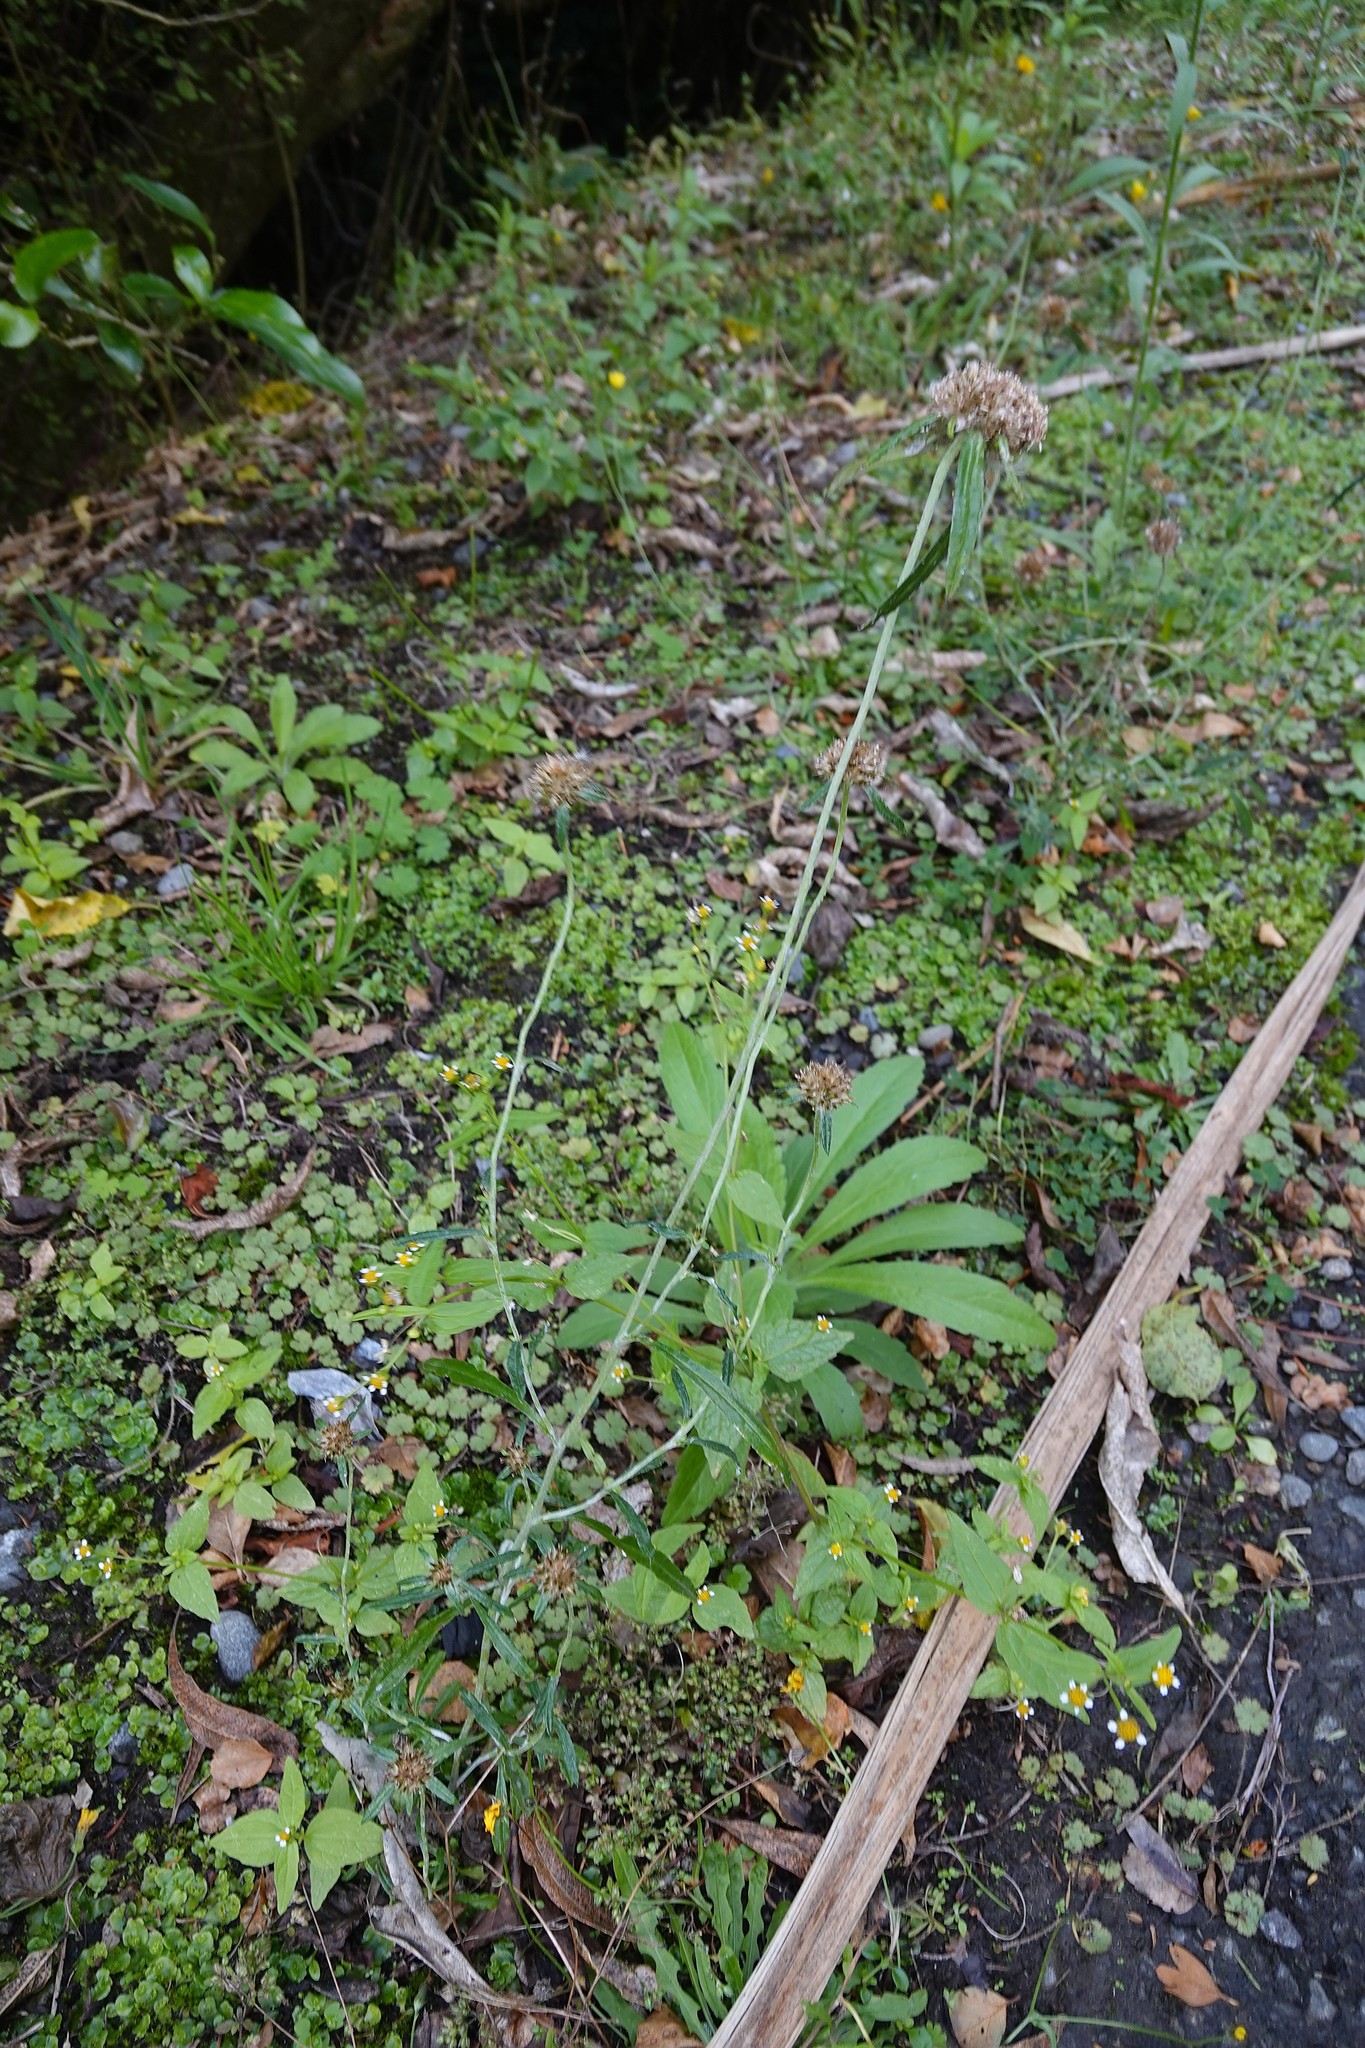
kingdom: Plantae
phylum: Tracheophyta
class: Magnoliopsida
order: Asterales
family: Asteraceae
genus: Helichrysum
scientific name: Helichrysum luteoalbum
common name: Daisy
